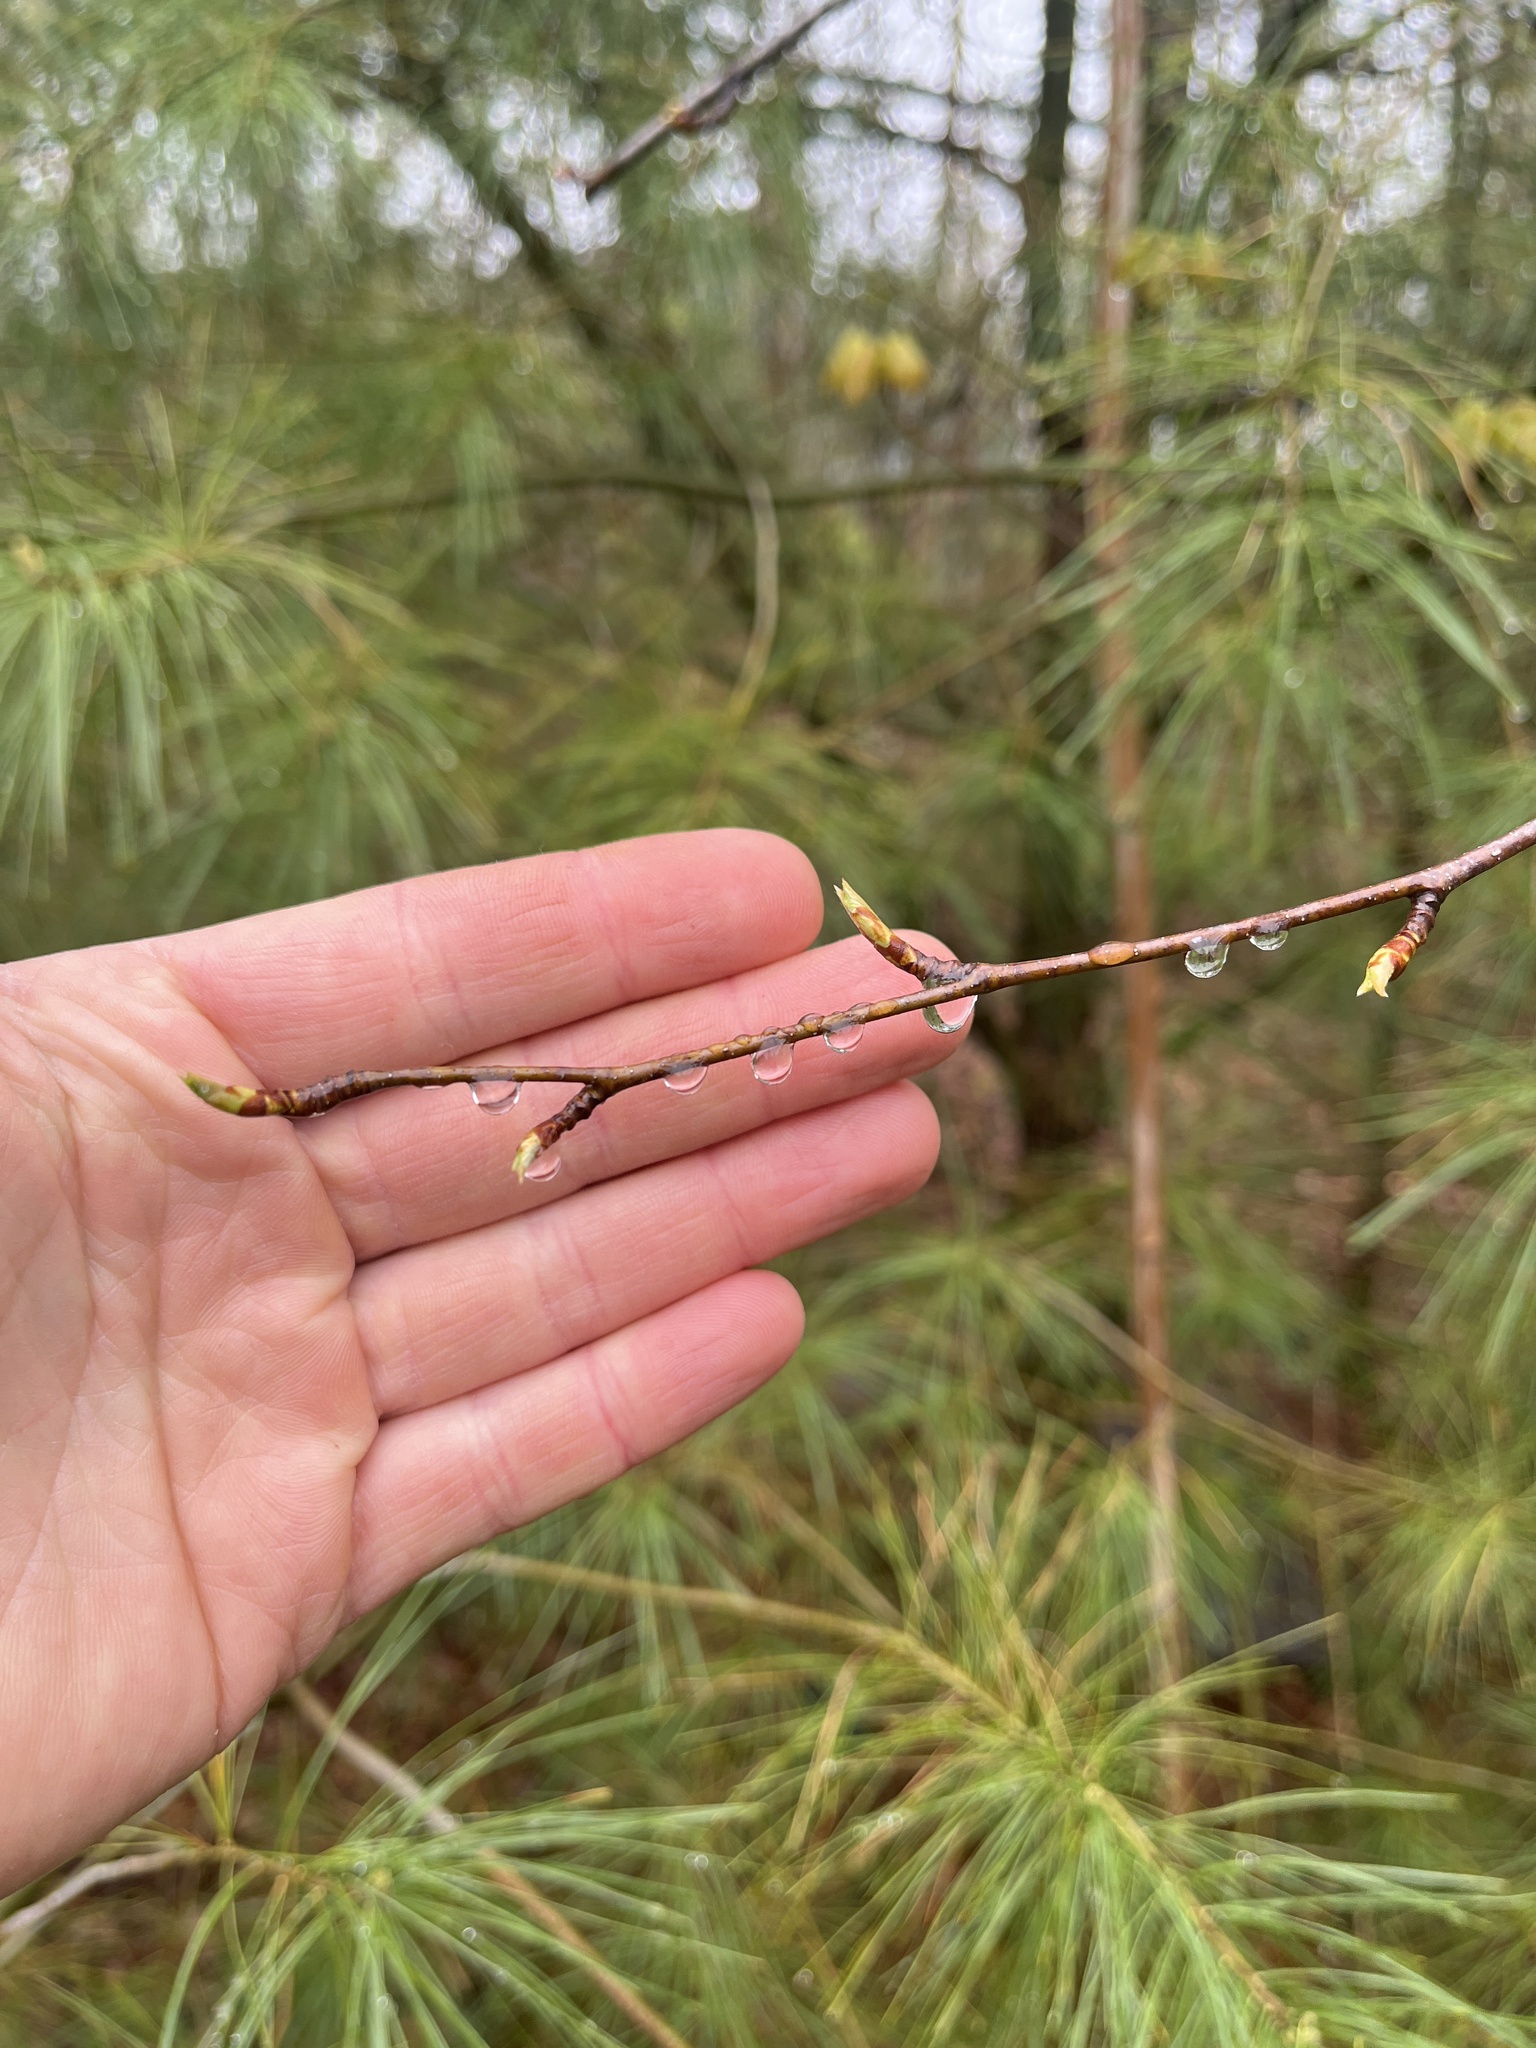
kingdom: Plantae
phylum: Tracheophyta
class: Magnoliopsida
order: Fagales
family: Betulaceae
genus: Betula
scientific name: Betula alleghaniensis
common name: Yellow birch
